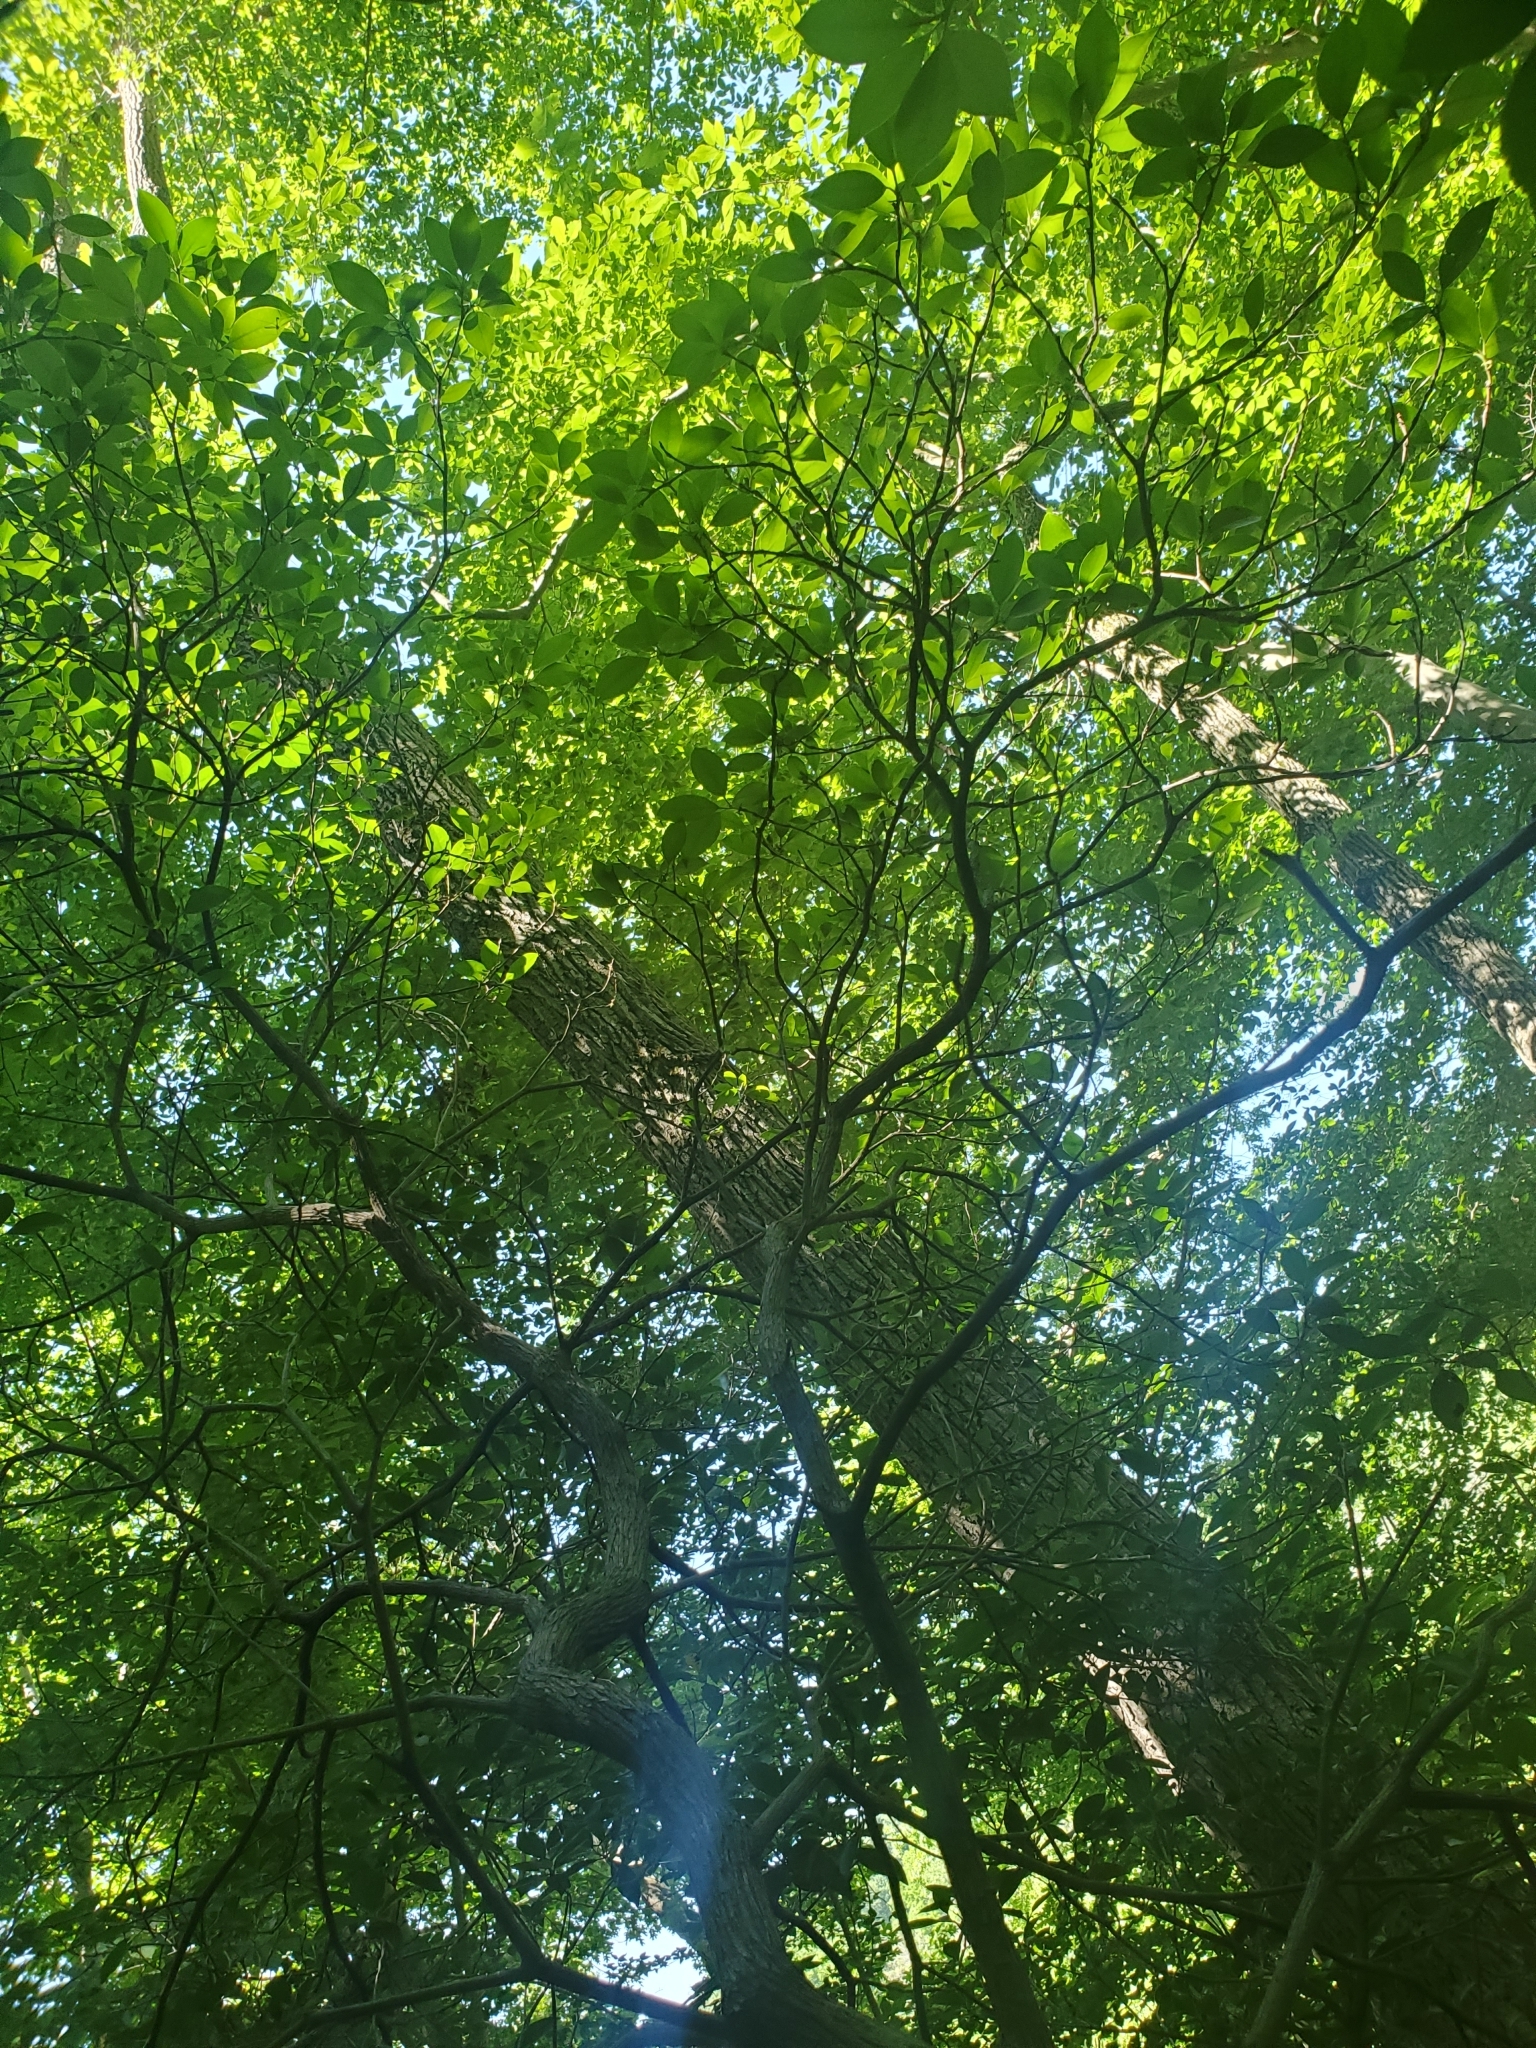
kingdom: Plantae
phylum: Tracheophyta
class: Magnoliopsida
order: Ericales
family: Ericaceae
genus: Kalmia
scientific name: Kalmia latifolia
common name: Mountain-laurel
